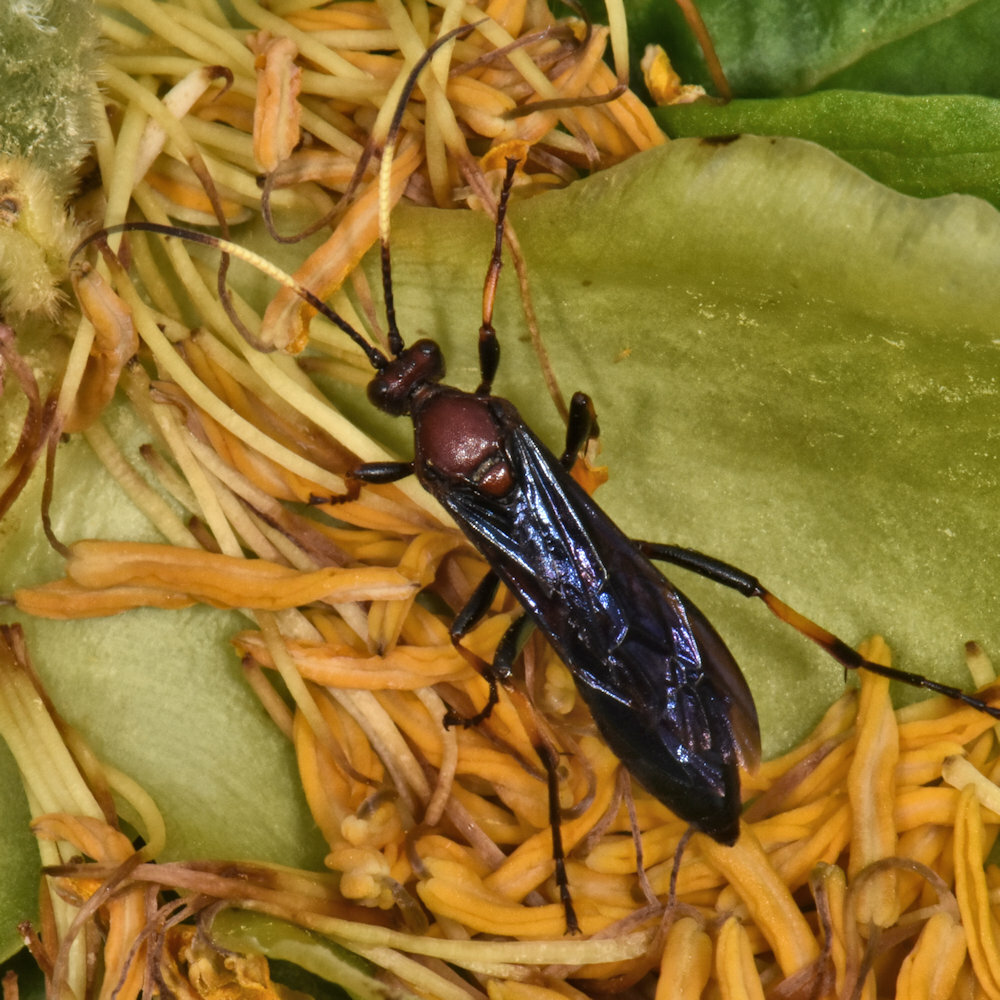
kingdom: Animalia
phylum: Arthropoda
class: Insecta
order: Hymenoptera
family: Ichneumonidae
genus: Ichneumon
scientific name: Ichneumon centrator
